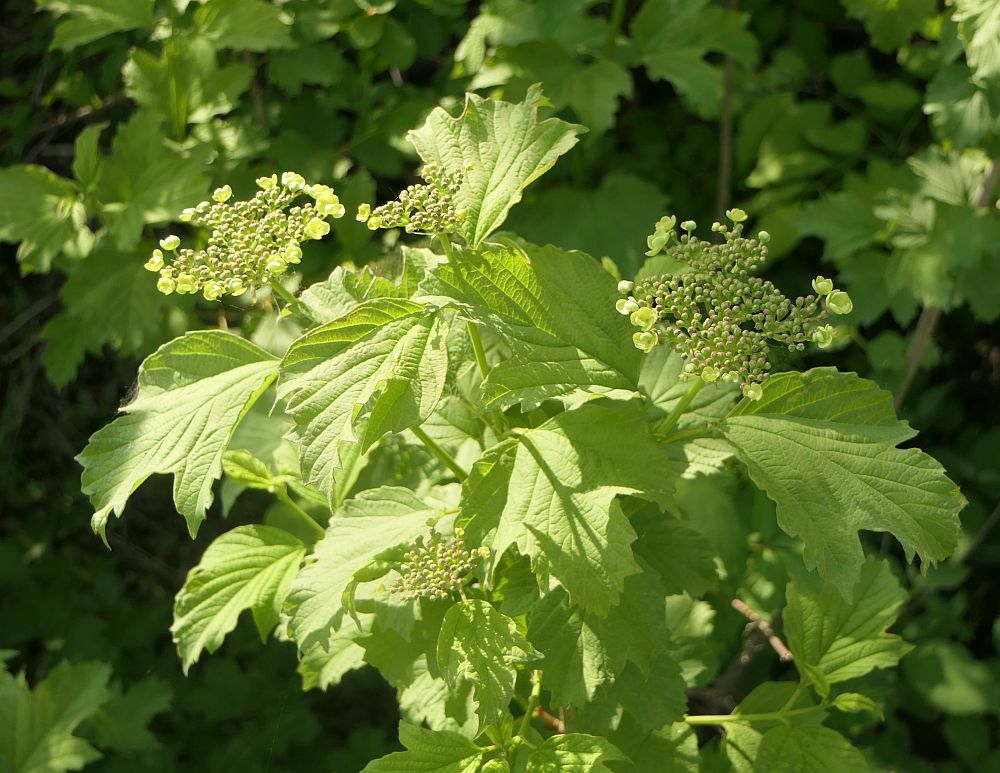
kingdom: Plantae
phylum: Tracheophyta
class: Magnoliopsida
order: Dipsacales
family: Viburnaceae
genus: Viburnum
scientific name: Viburnum opulus
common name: Guelder-rose
